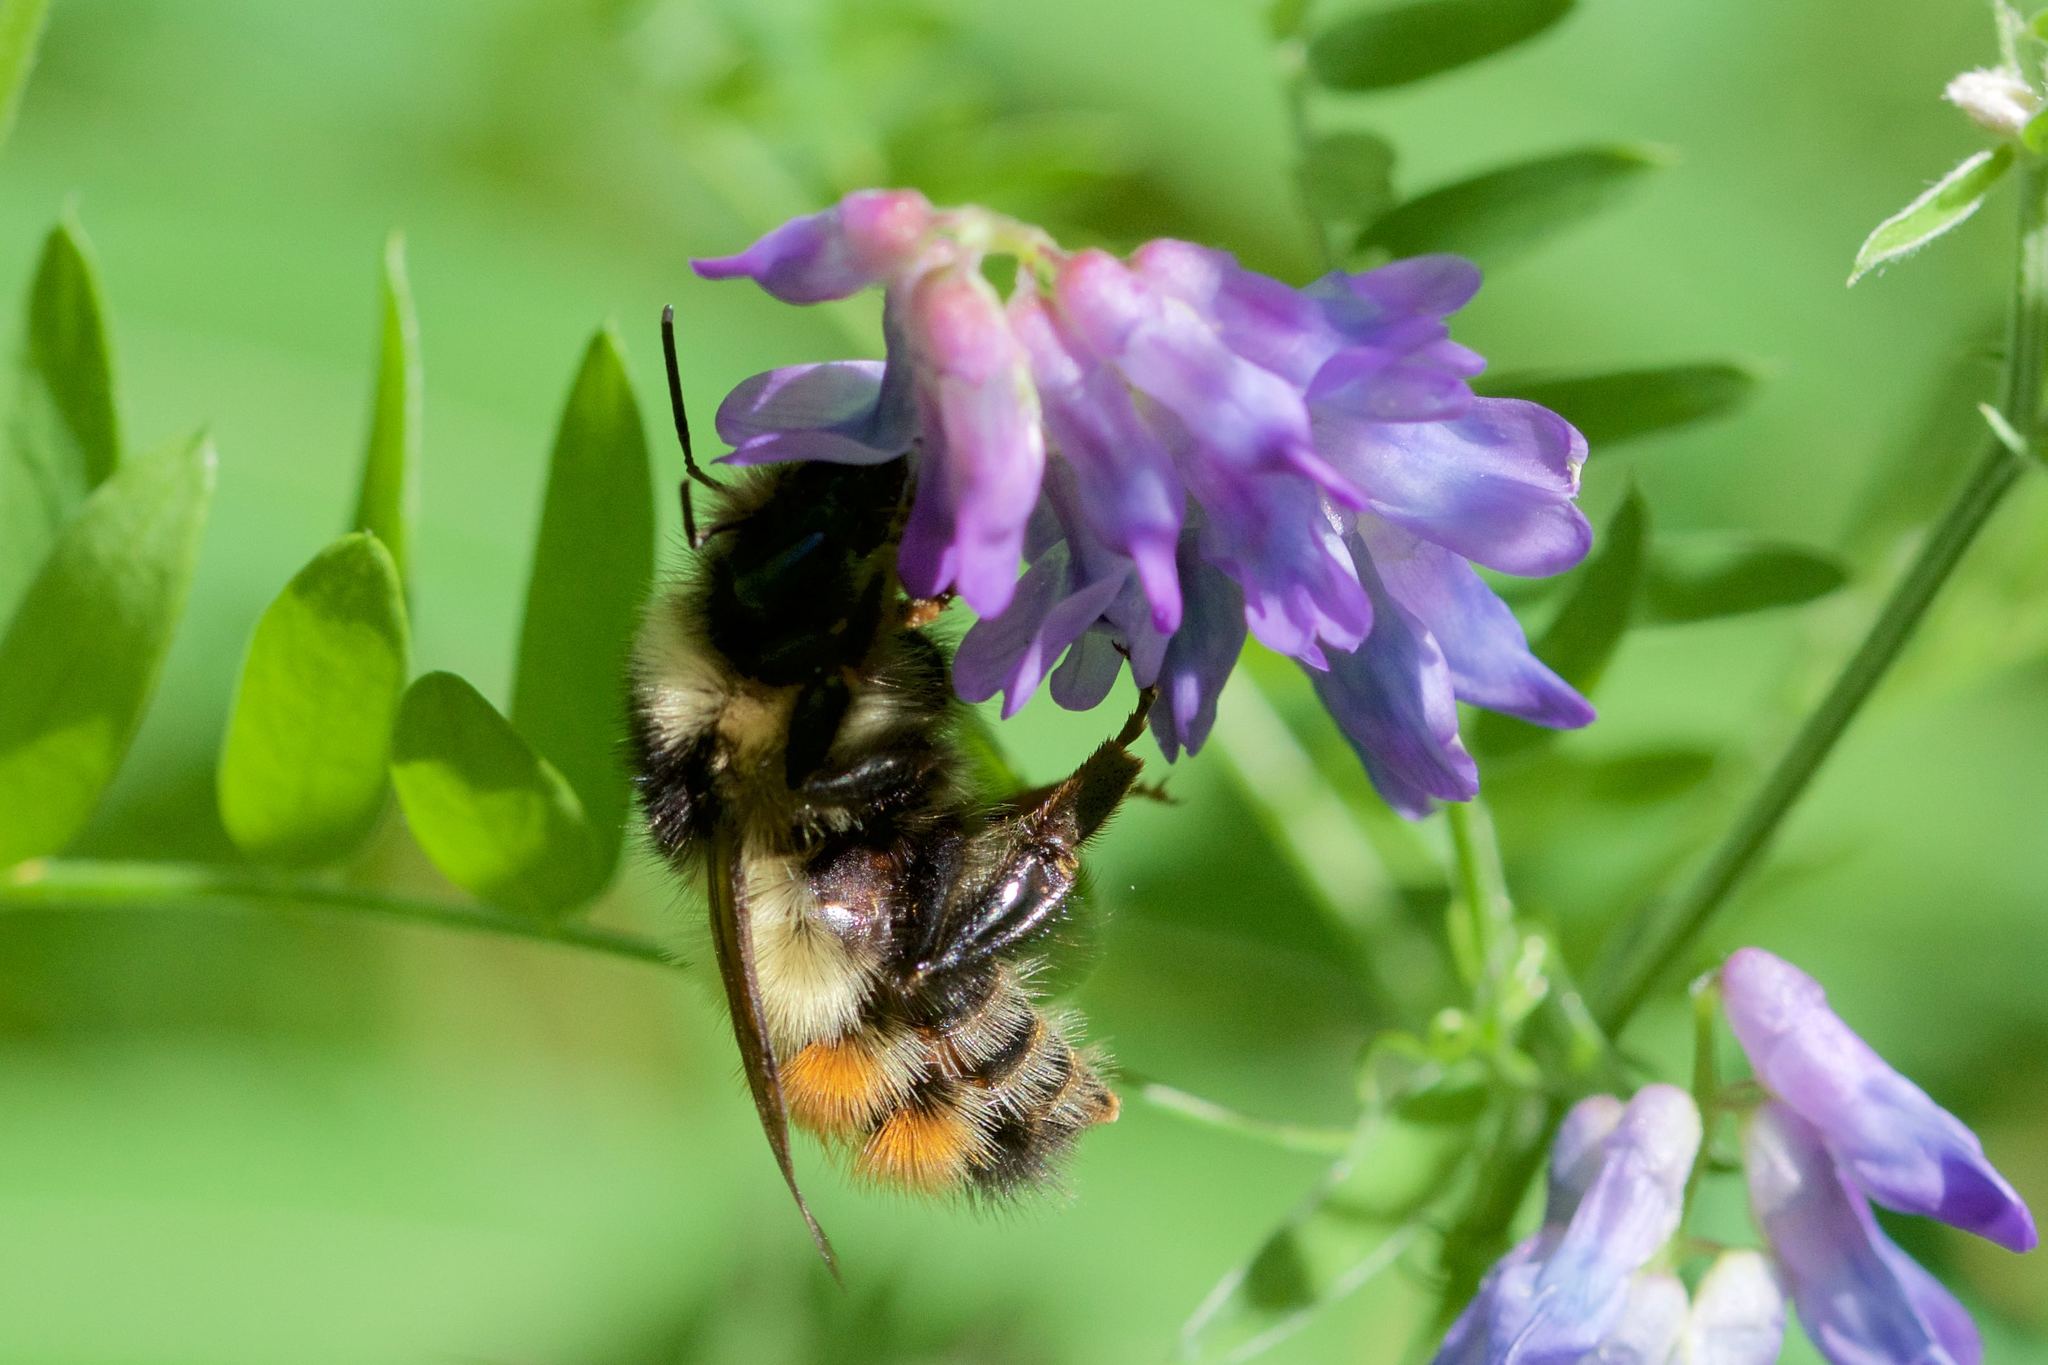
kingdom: Animalia
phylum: Arthropoda
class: Insecta
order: Hymenoptera
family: Apidae
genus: Bombus
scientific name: Bombus flavifrons
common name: Yellow head bumble bee
